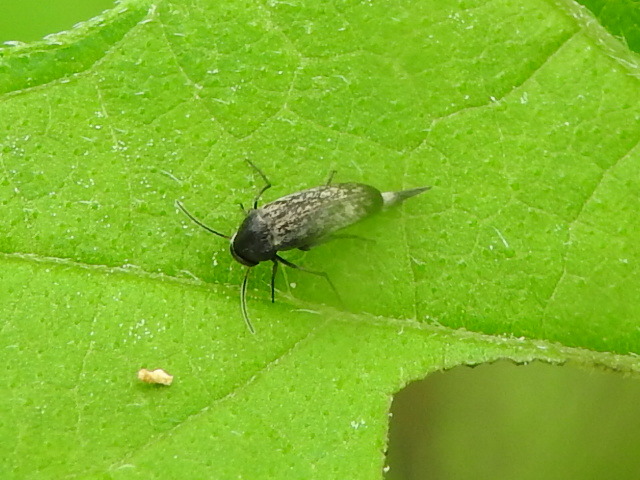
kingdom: Animalia
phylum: Arthropoda
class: Insecta
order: Coleoptera
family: Mordellidae
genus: Mordellina
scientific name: Mordellina pustulata
